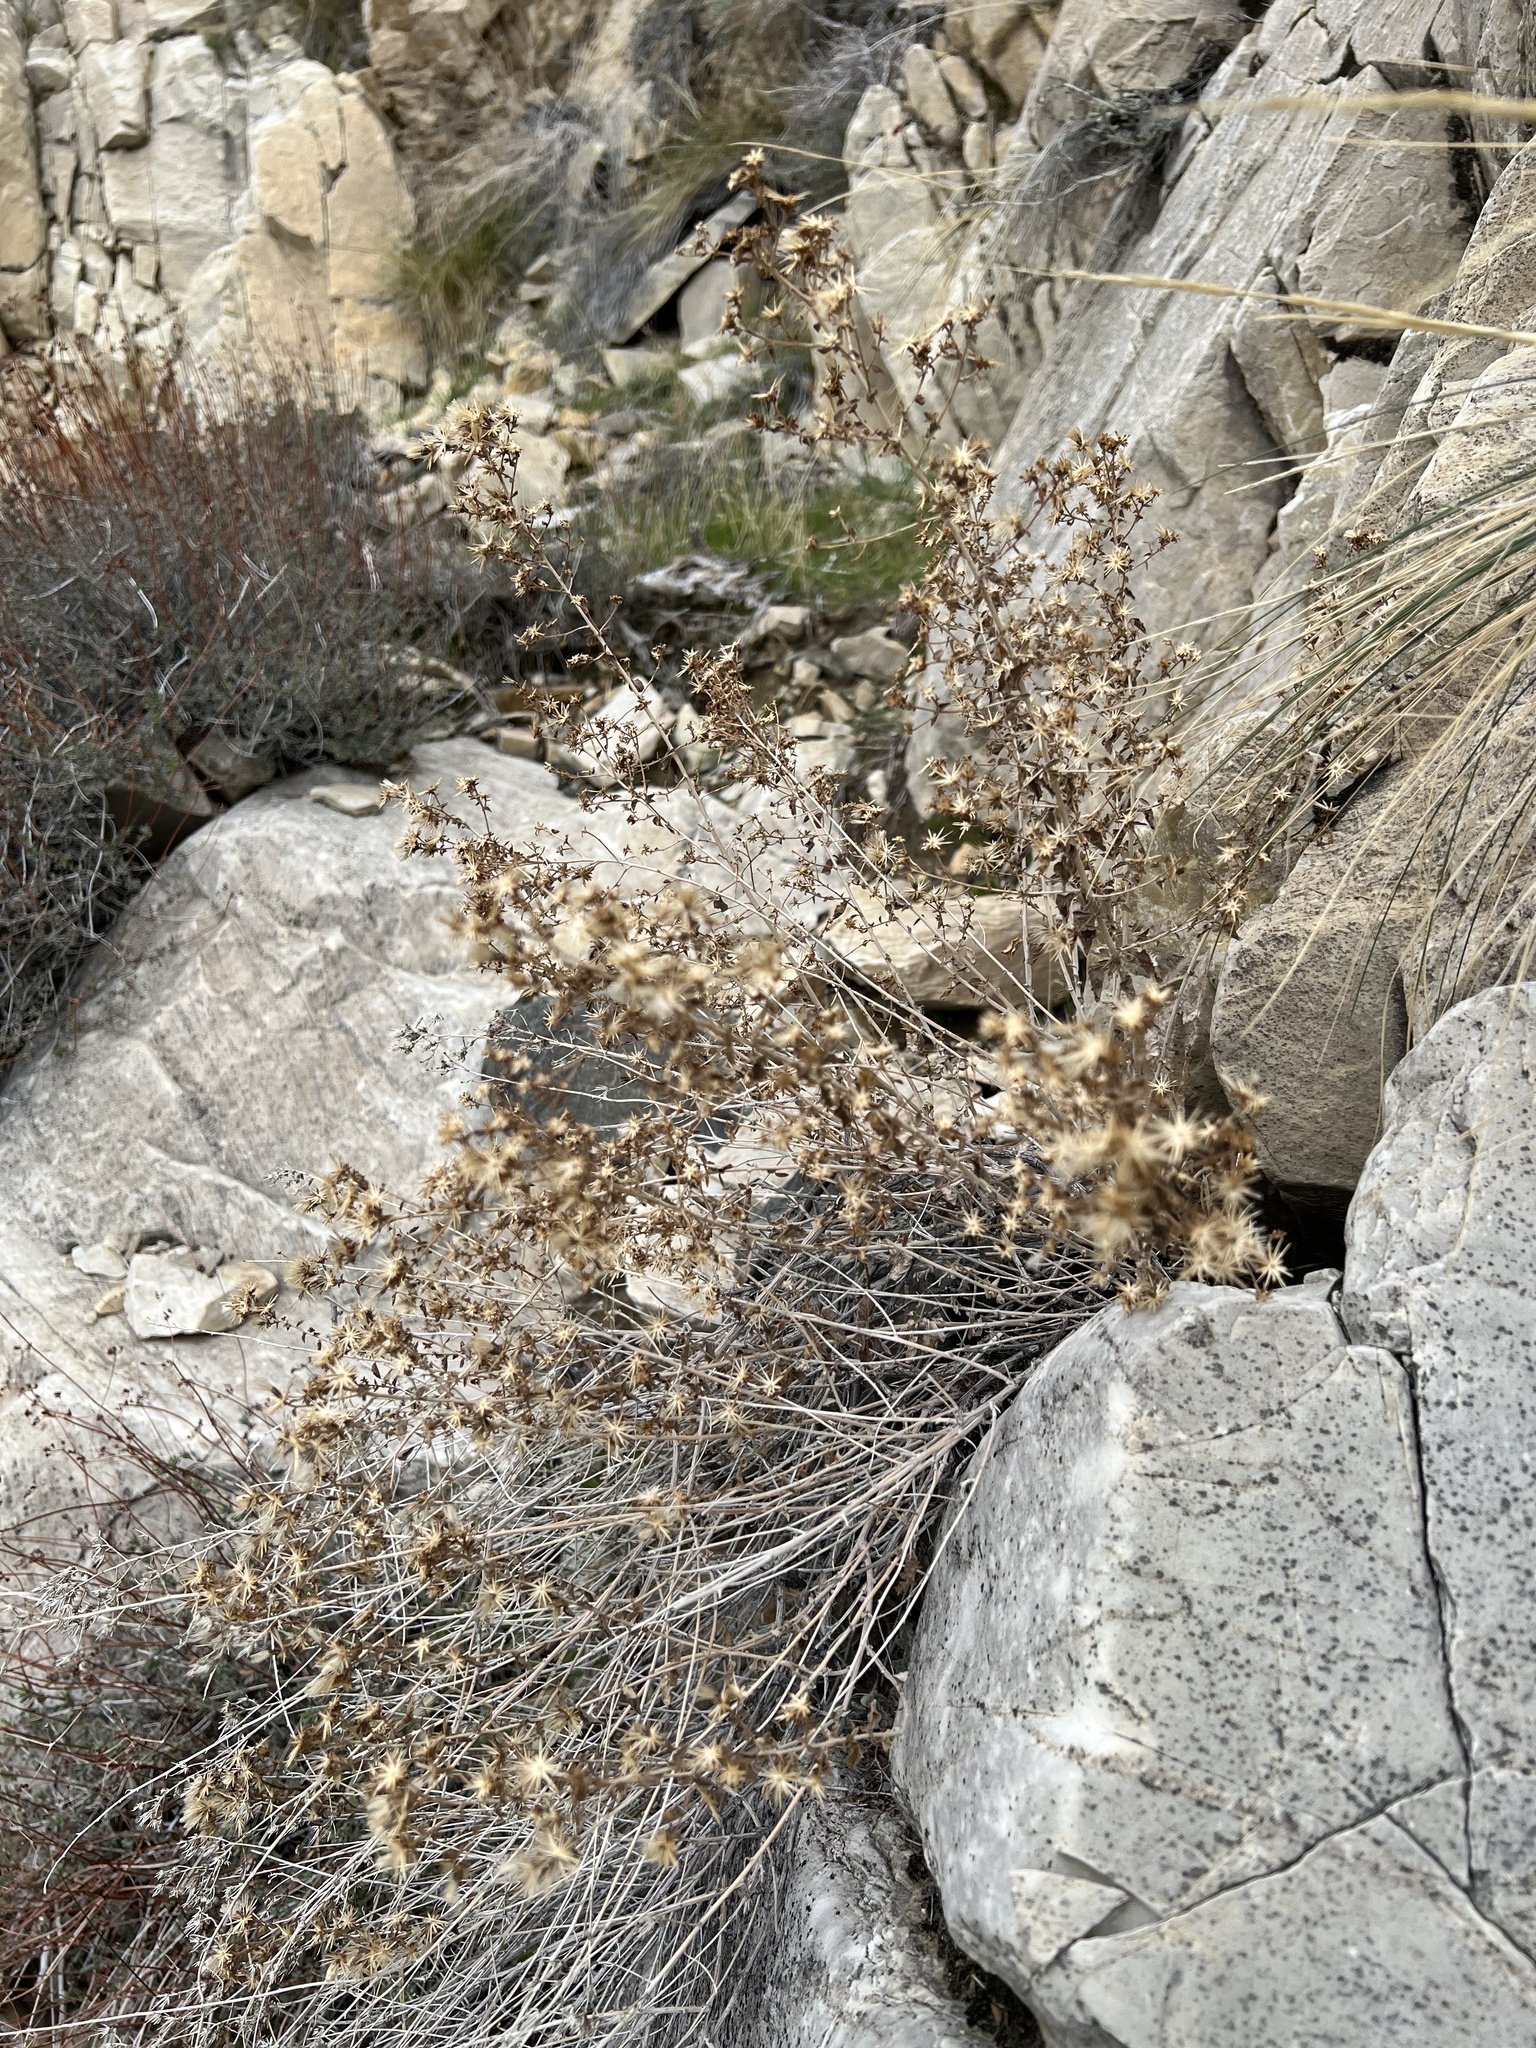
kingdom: Plantae
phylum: Tracheophyta
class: Magnoliopsida
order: Asterales
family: Asteraceae
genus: Brickellia
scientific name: Brickellia microphylla
